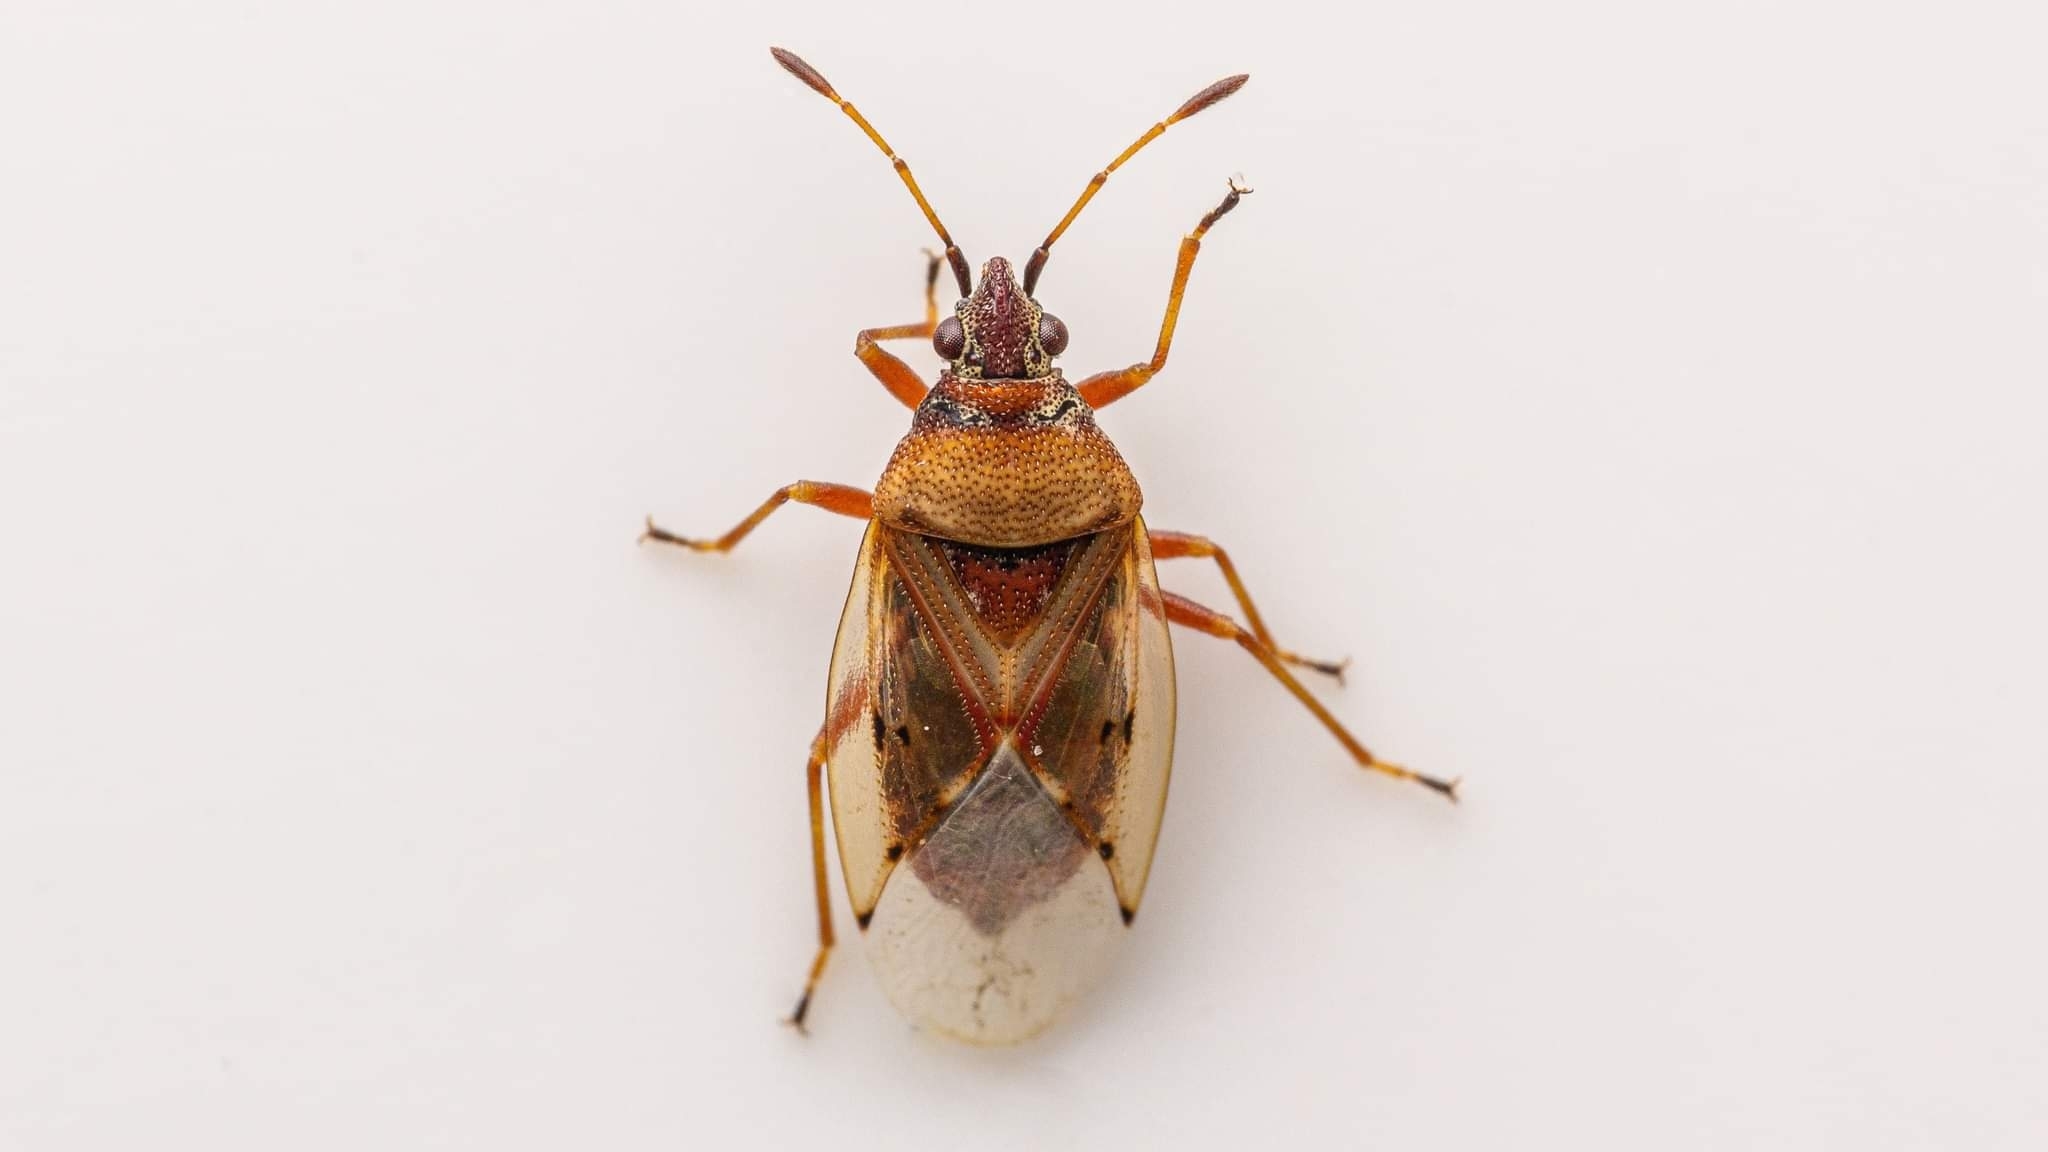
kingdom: Animalia
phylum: Arthropoda
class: Insecta
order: Hemiptera
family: Lygaeidae
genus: Kleidocerys
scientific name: Kleidocerys resedae
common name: Birch catkin bug
